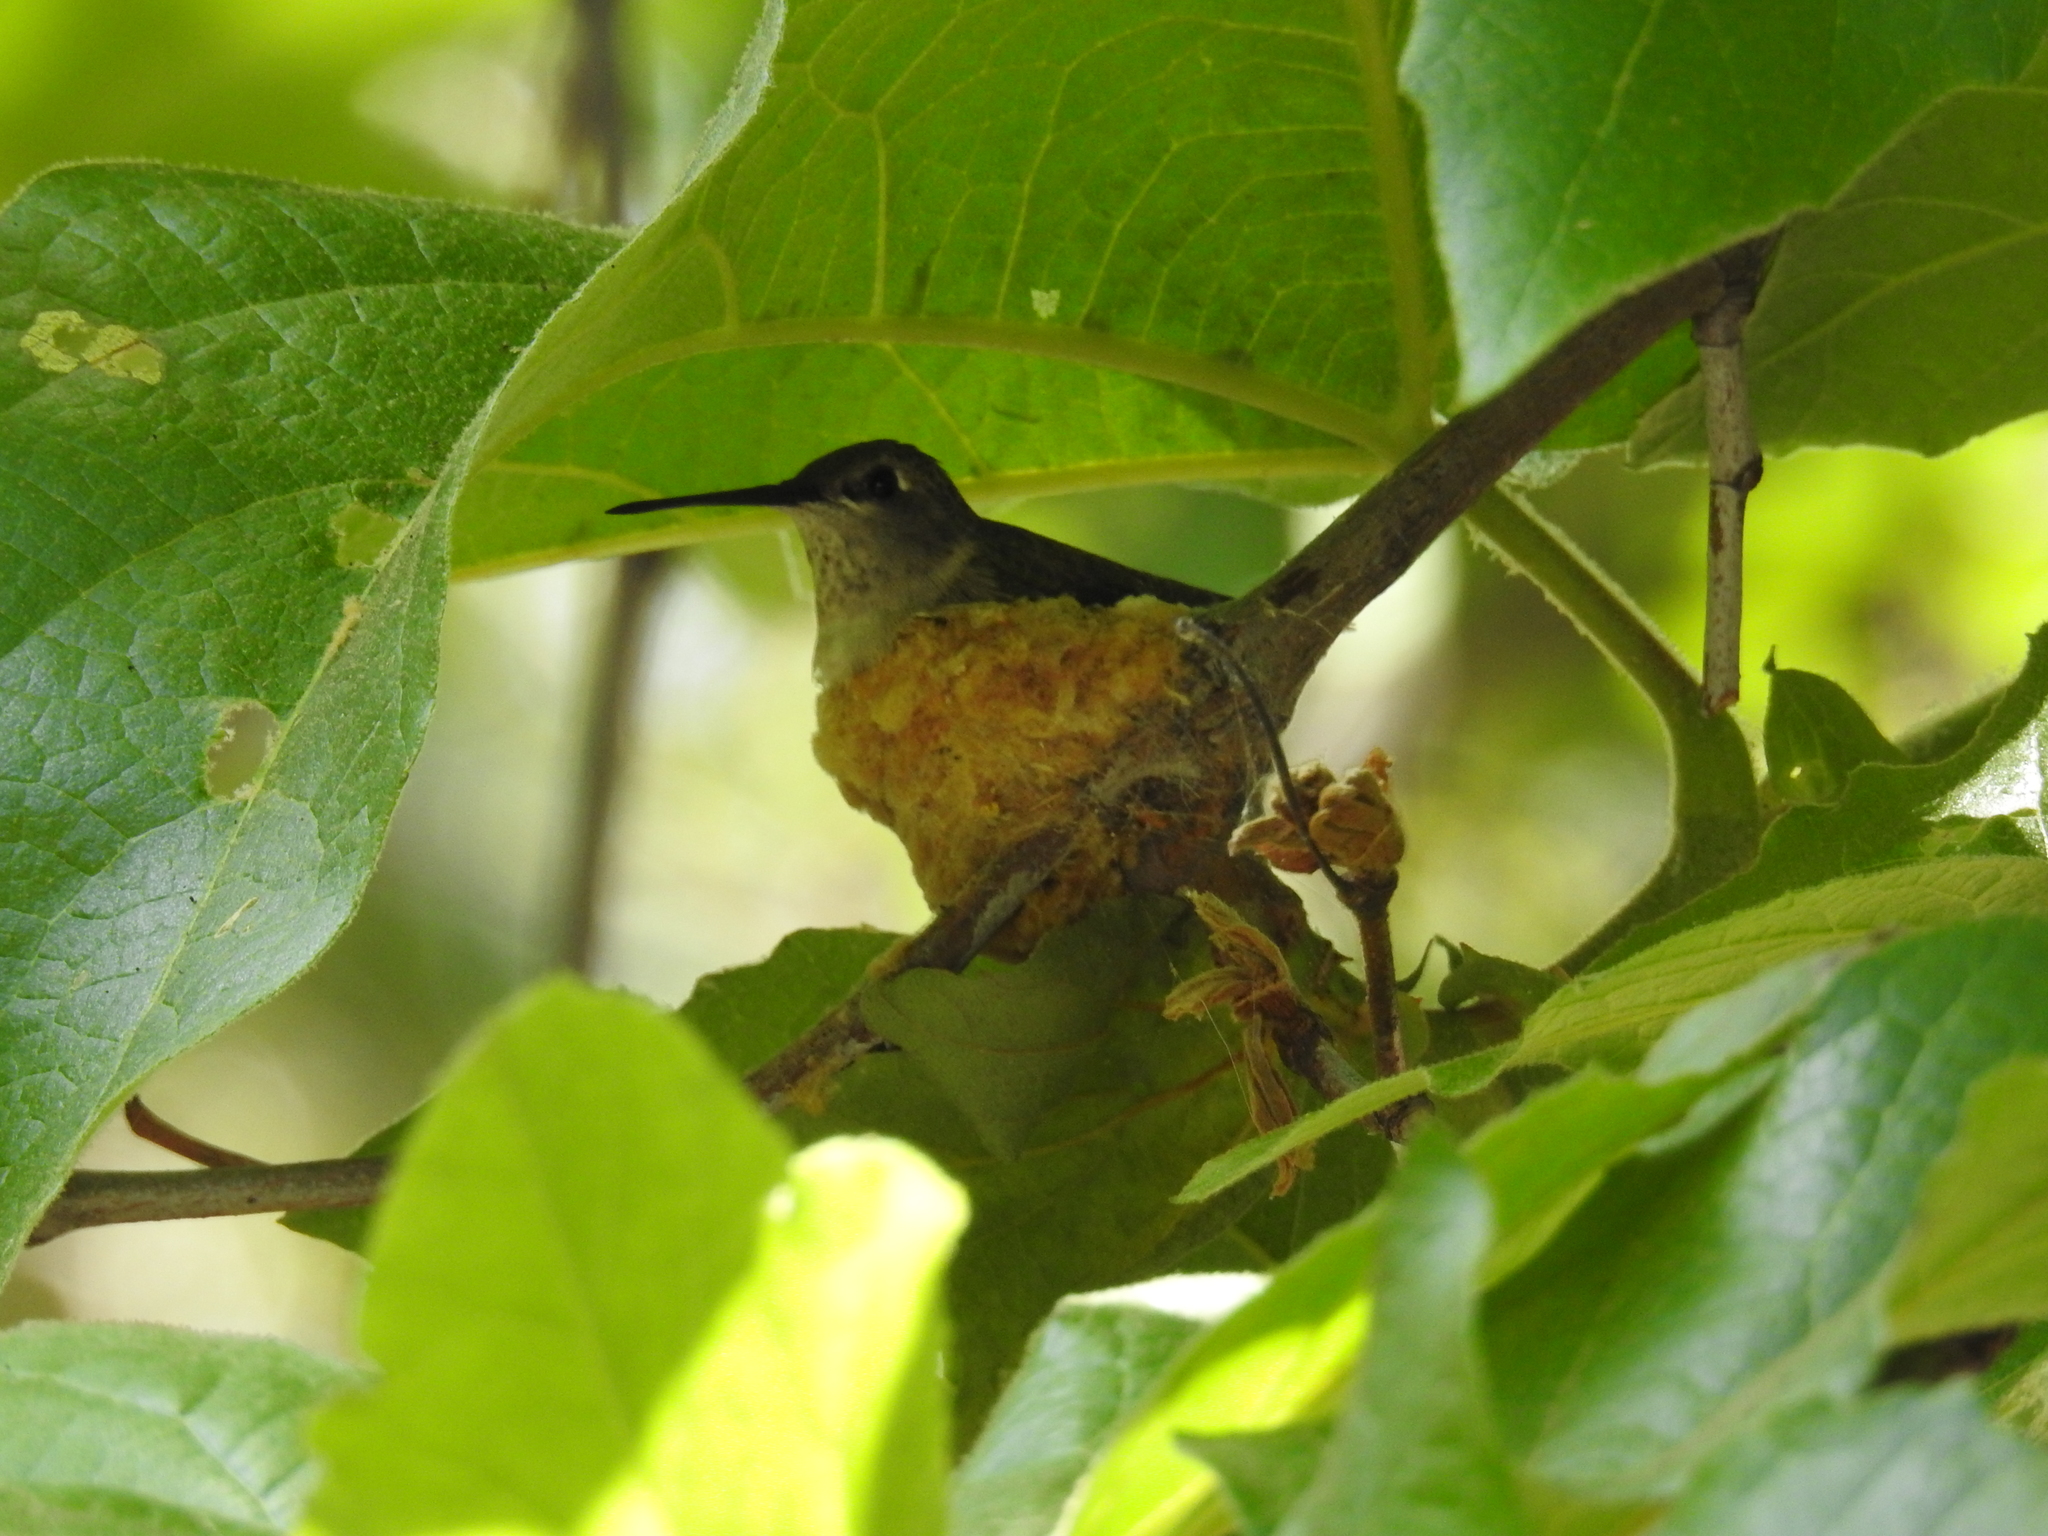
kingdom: Animalia
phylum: Chordata
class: Aves
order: Apodiformes
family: Trochilidae
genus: Archilochus
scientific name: Archilochus alexandri
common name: Black-chinned hummingbird
